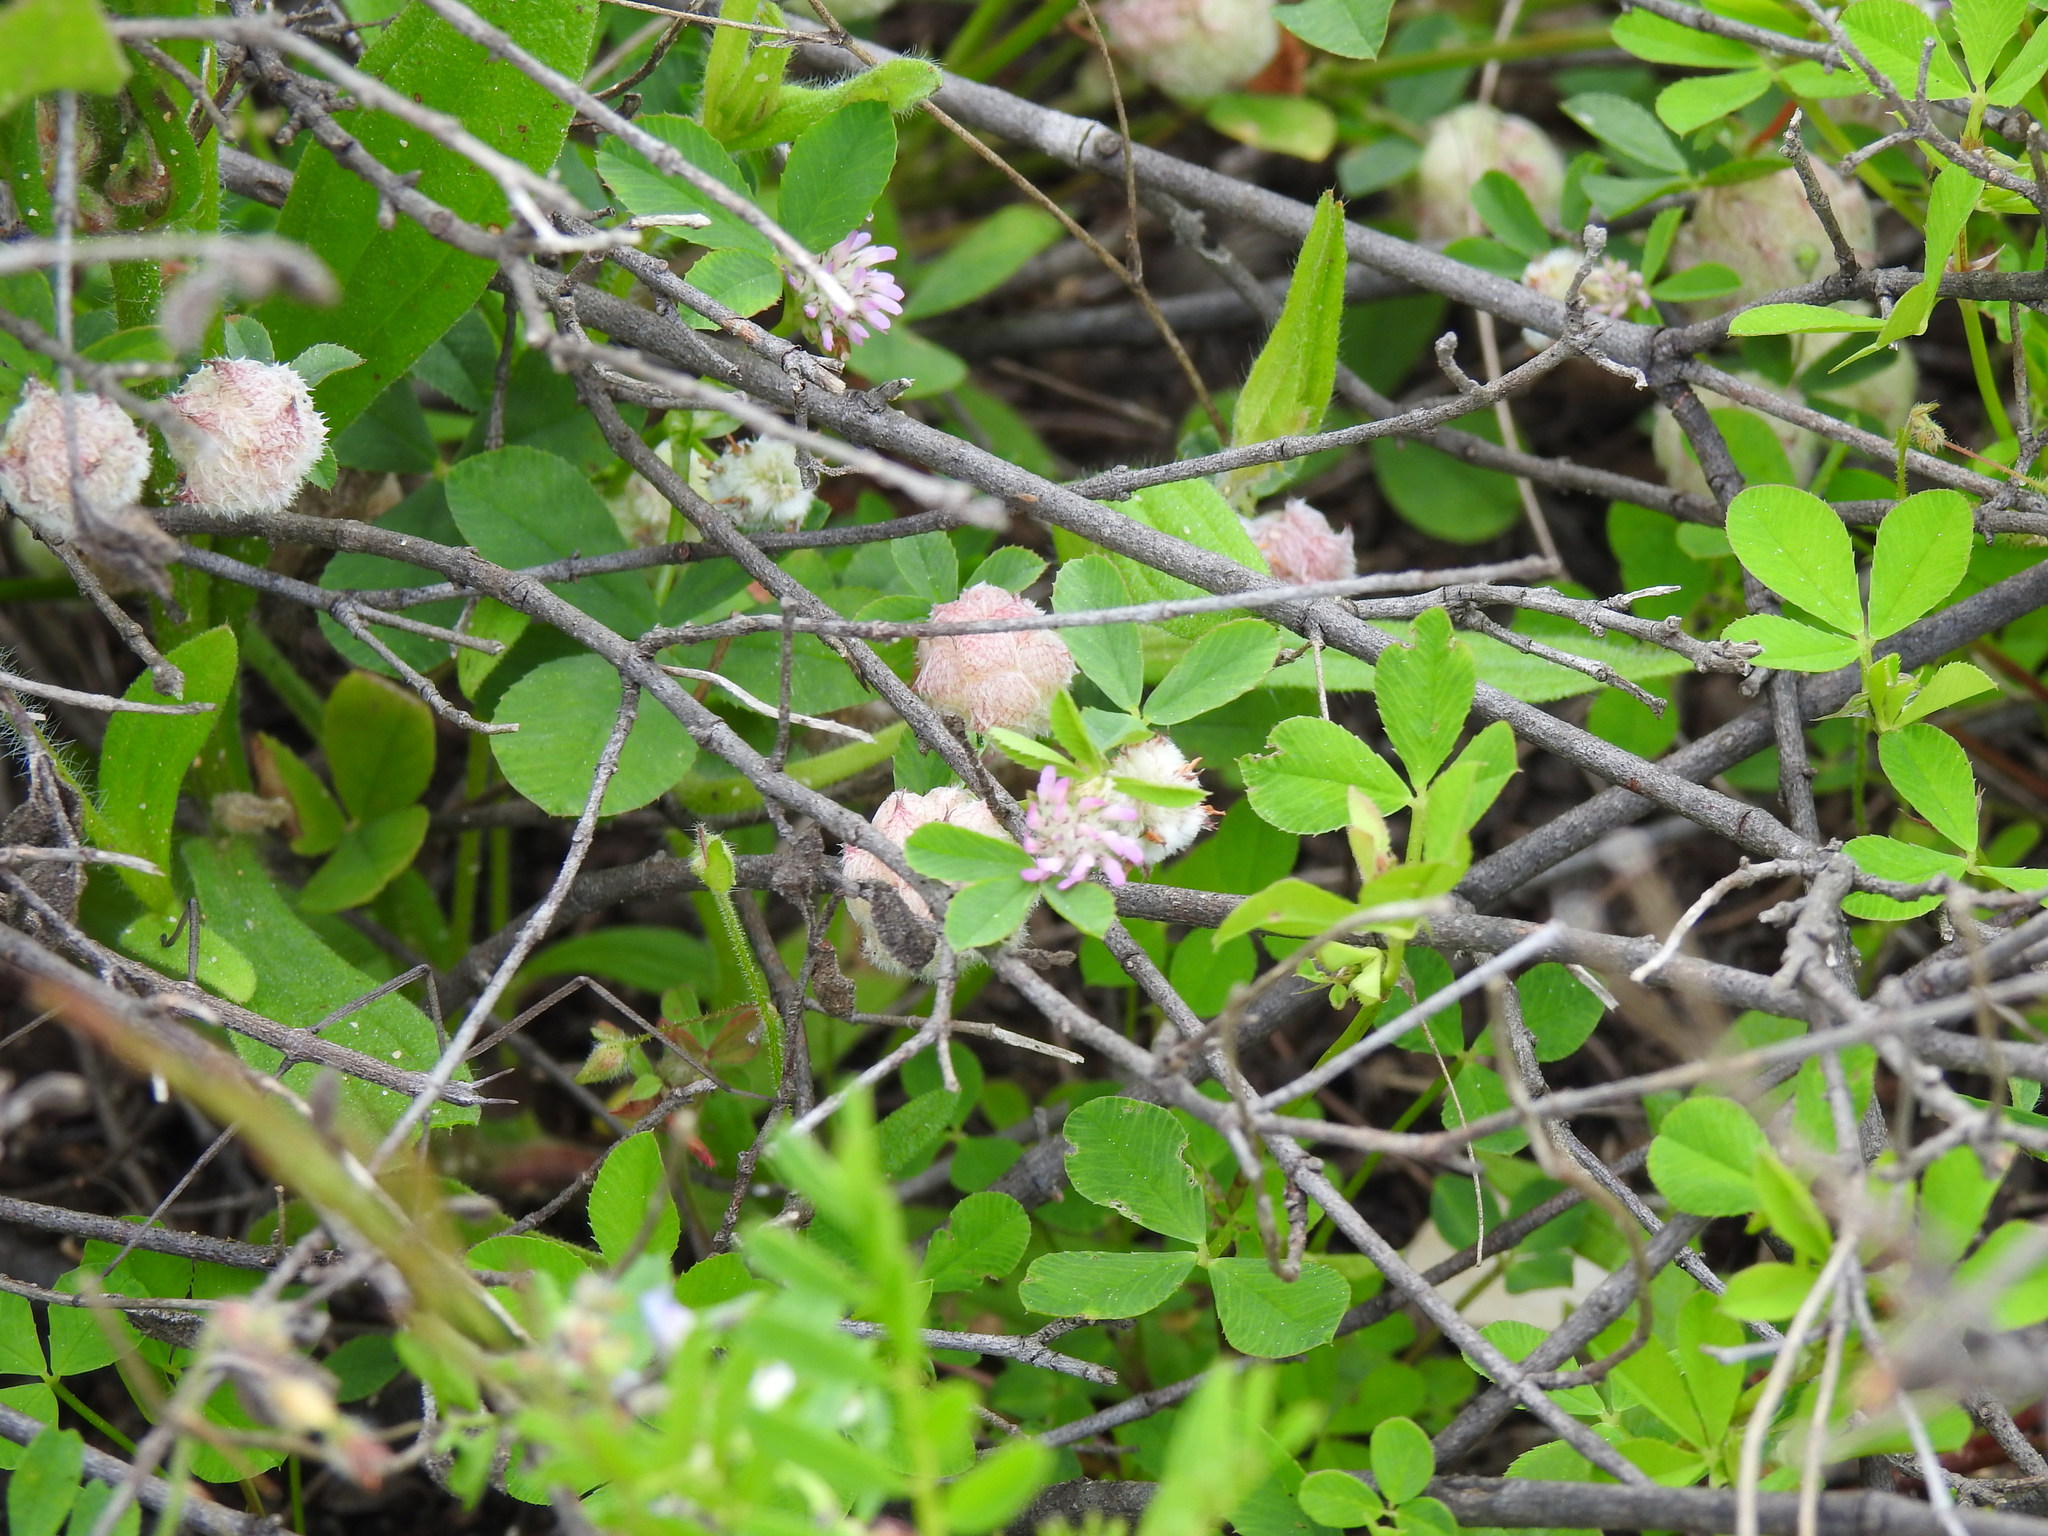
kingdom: Plantae
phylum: Tracheophyta
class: Magnoliopsida
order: Fabales
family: Fabaceae
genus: Trifolium
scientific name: Trifolium tomentosum
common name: Woolly clover
